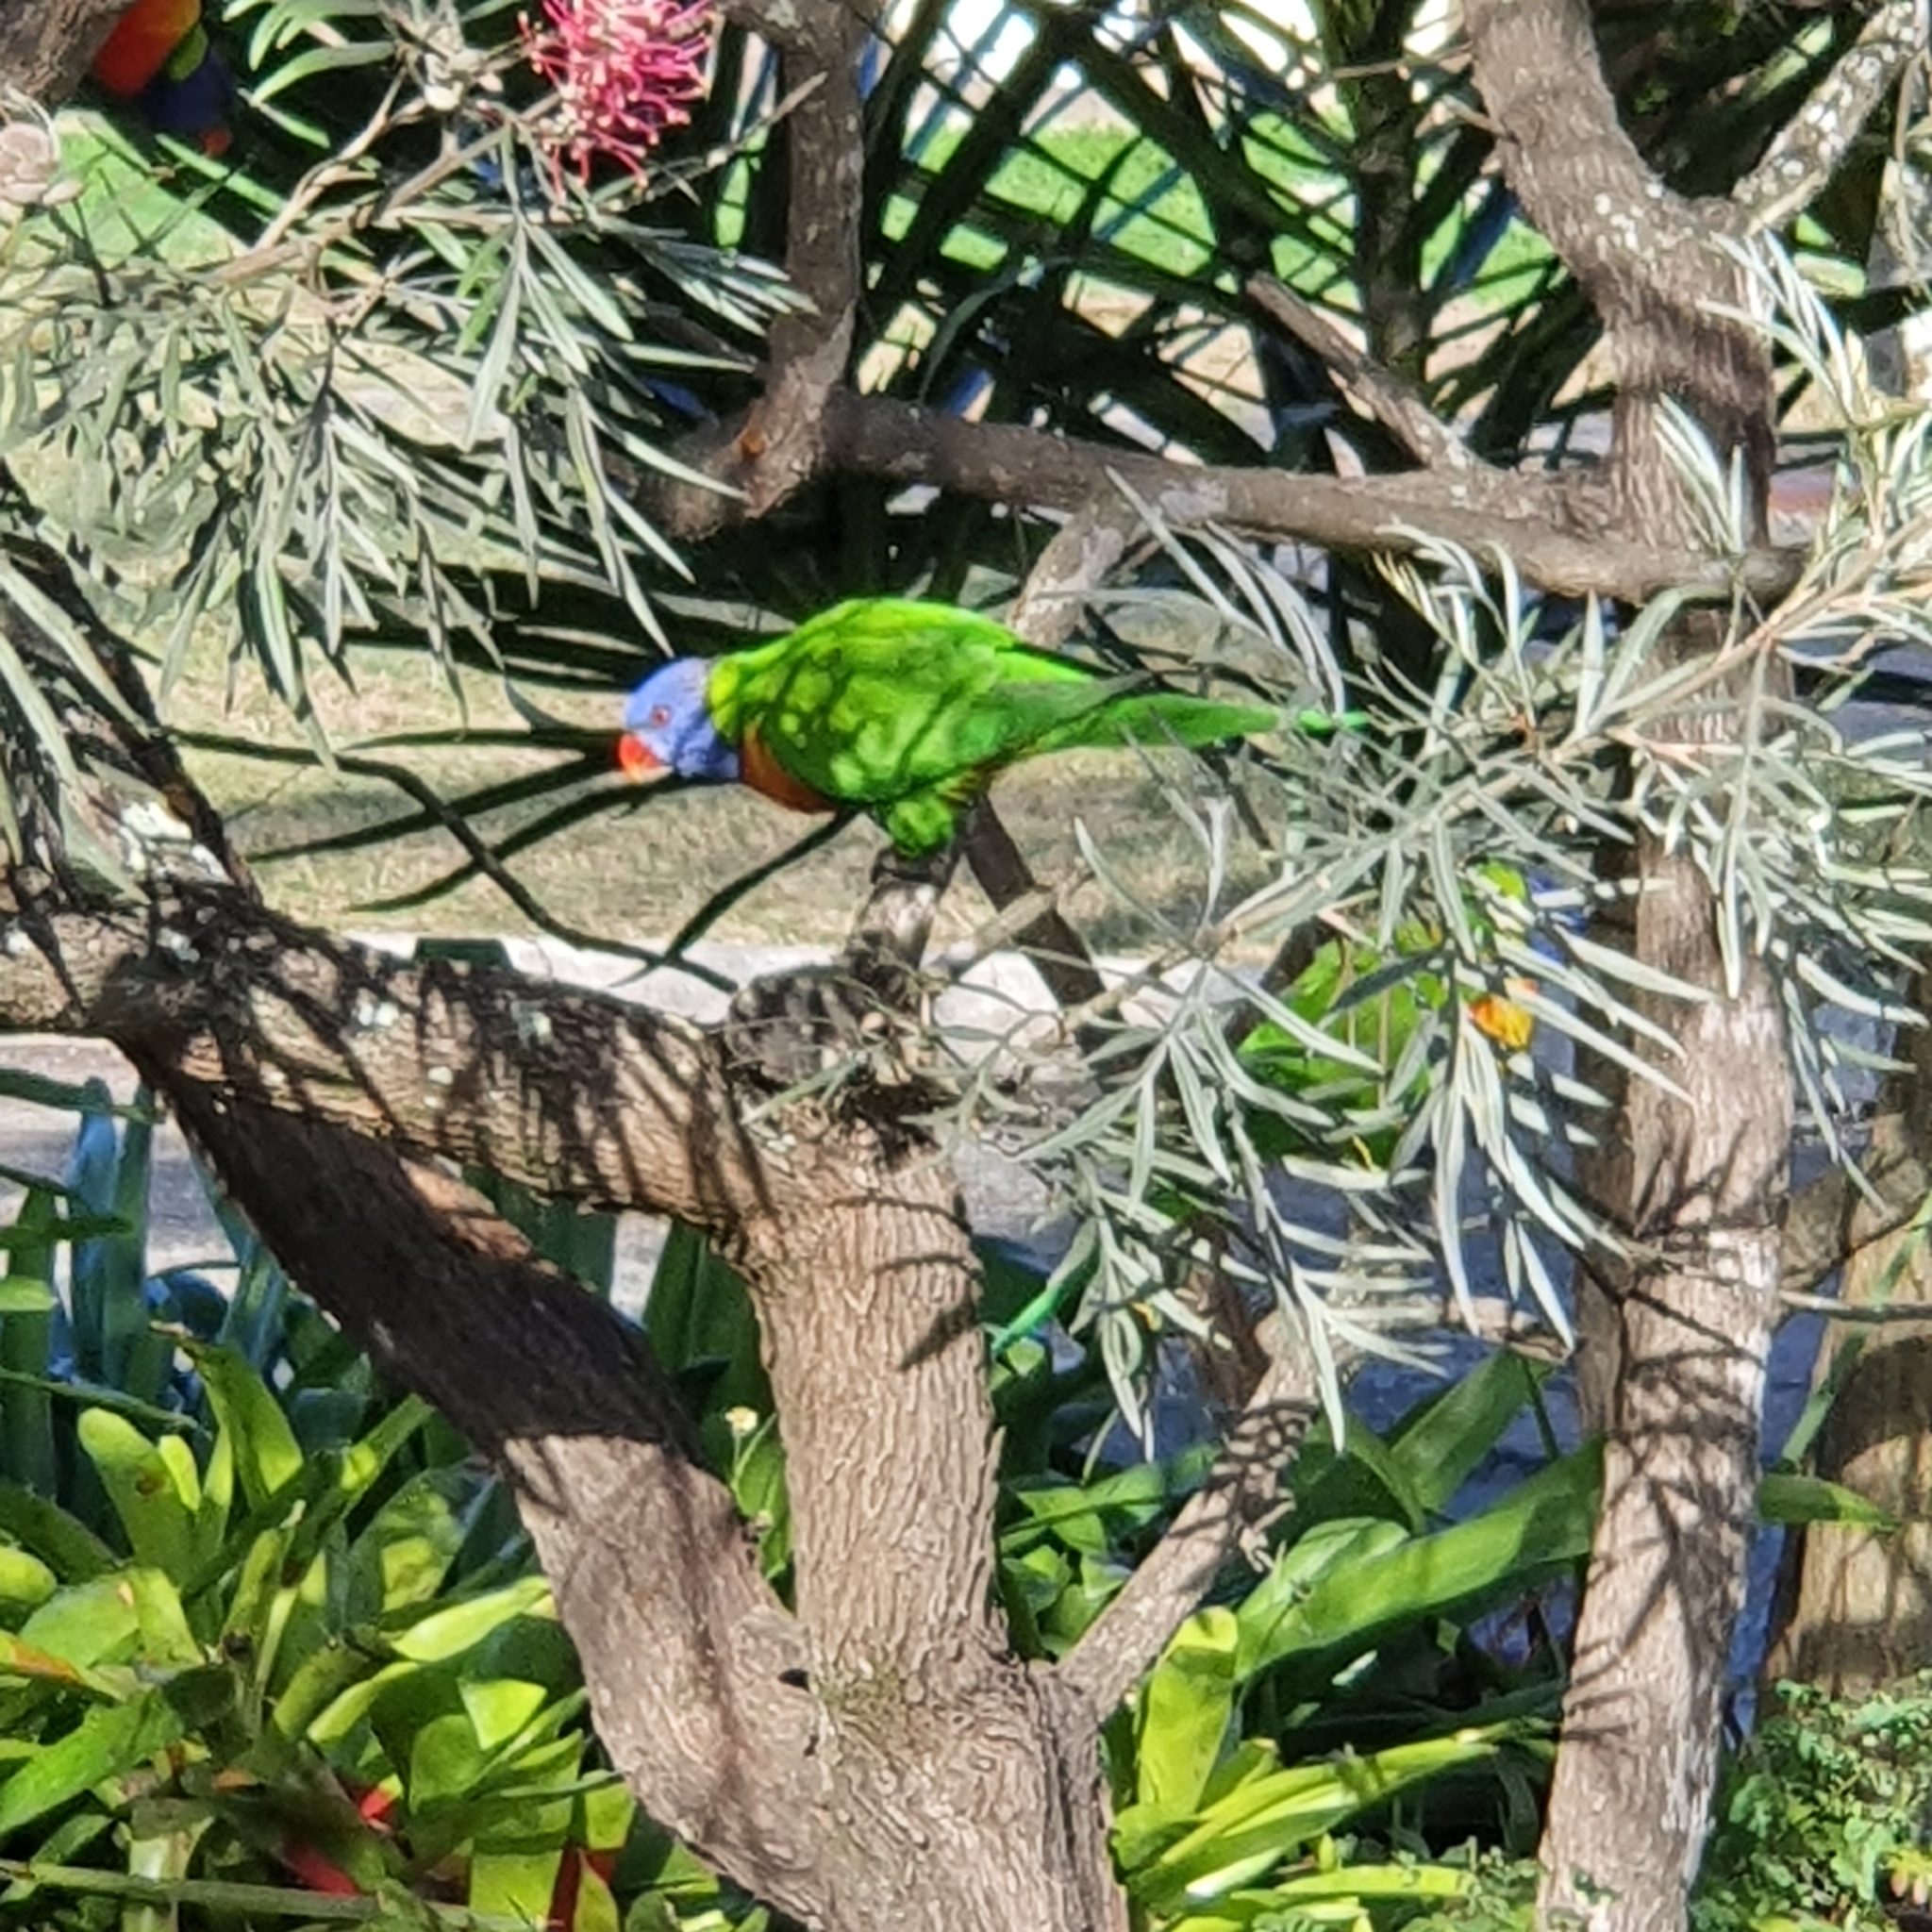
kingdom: Animalia
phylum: Chordata
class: Aves
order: Psittaciformes
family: Psittacidae
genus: Trichoglossus
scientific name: Trichoglossus haematodus
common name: Coconut lorikeet
